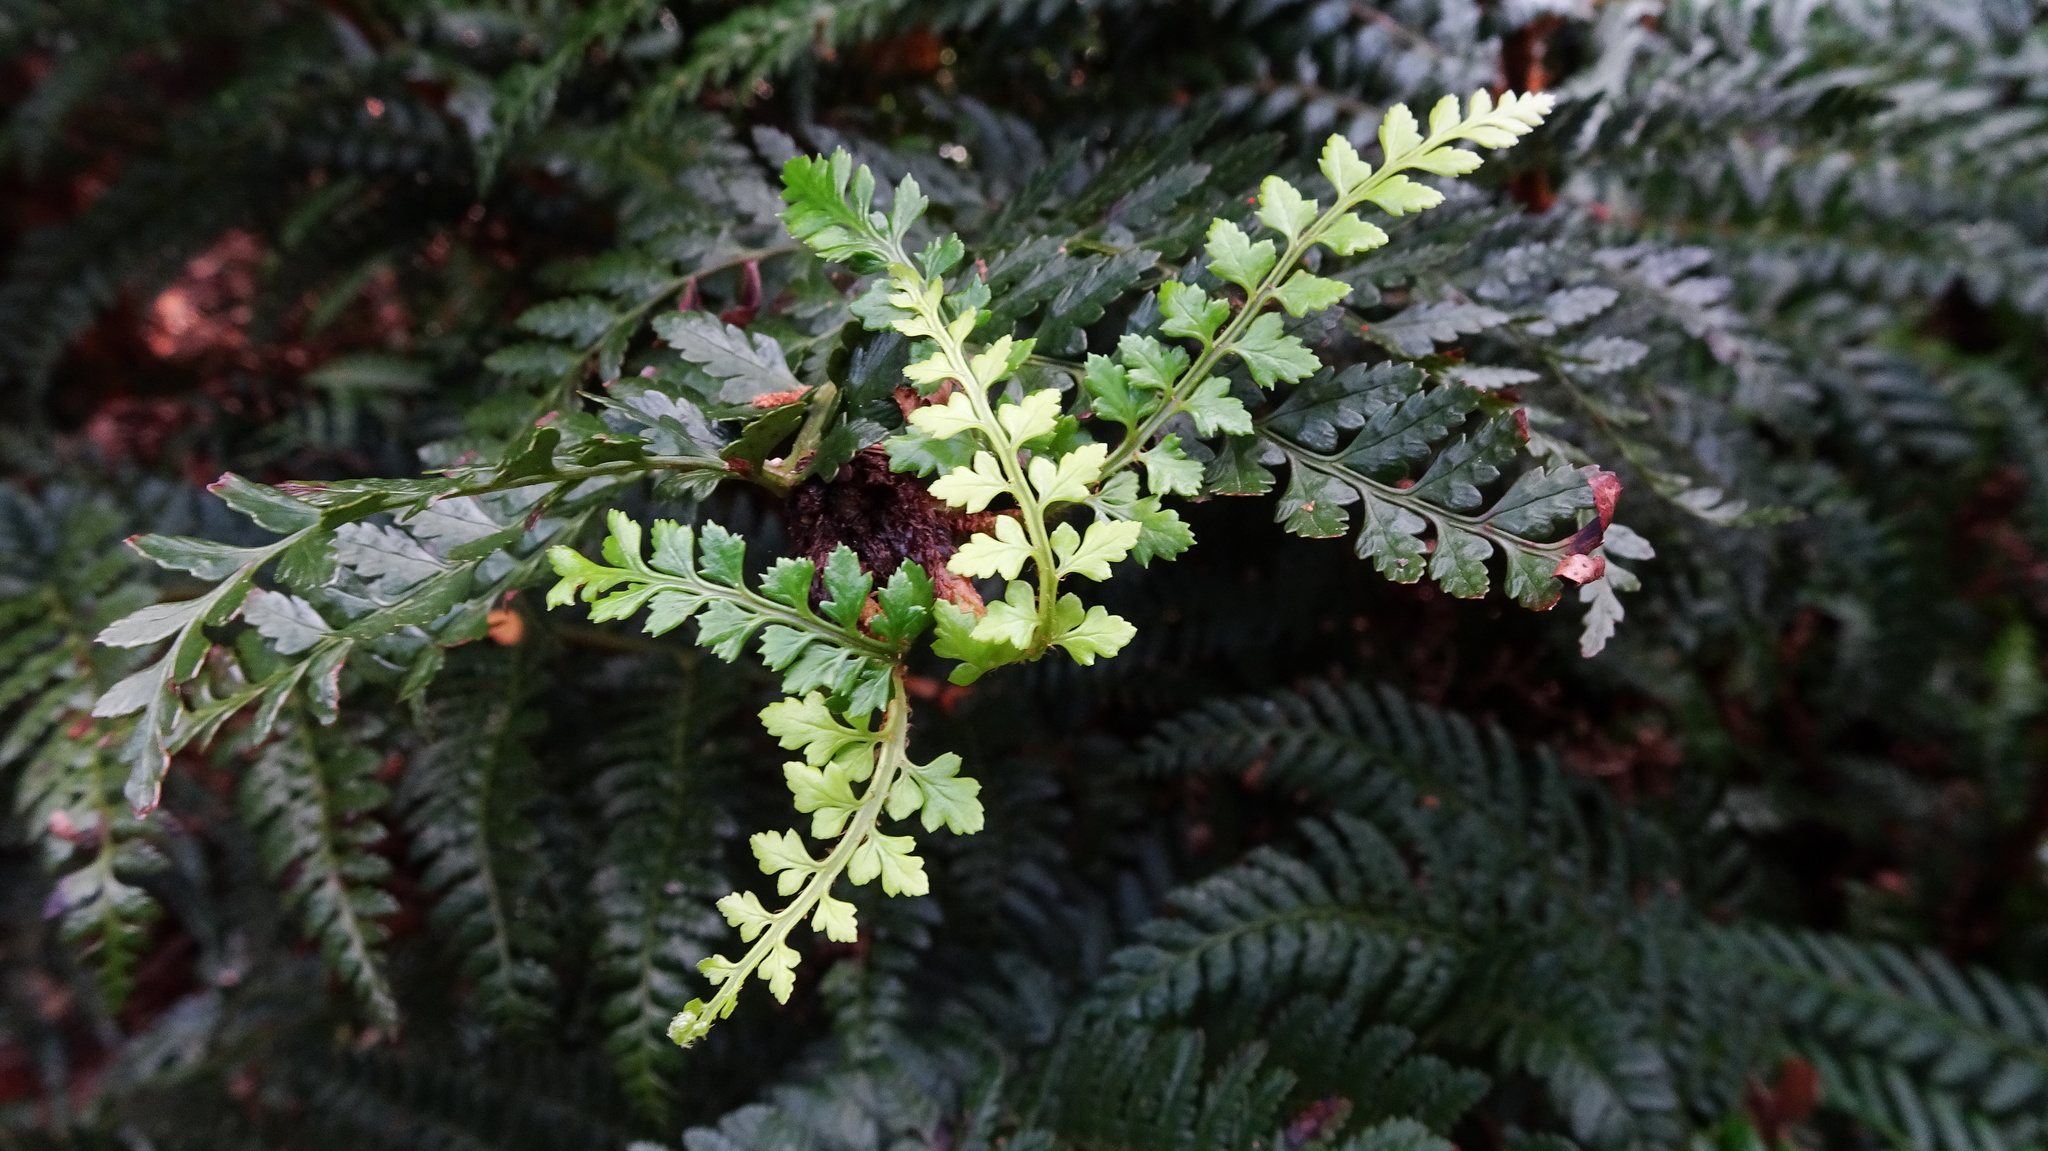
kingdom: Plantae
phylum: Tracheophyta
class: Polypodiopsida
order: Polypodiales
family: Dryopteridaceae
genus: Polystichum
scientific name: Polystichum proliferum
